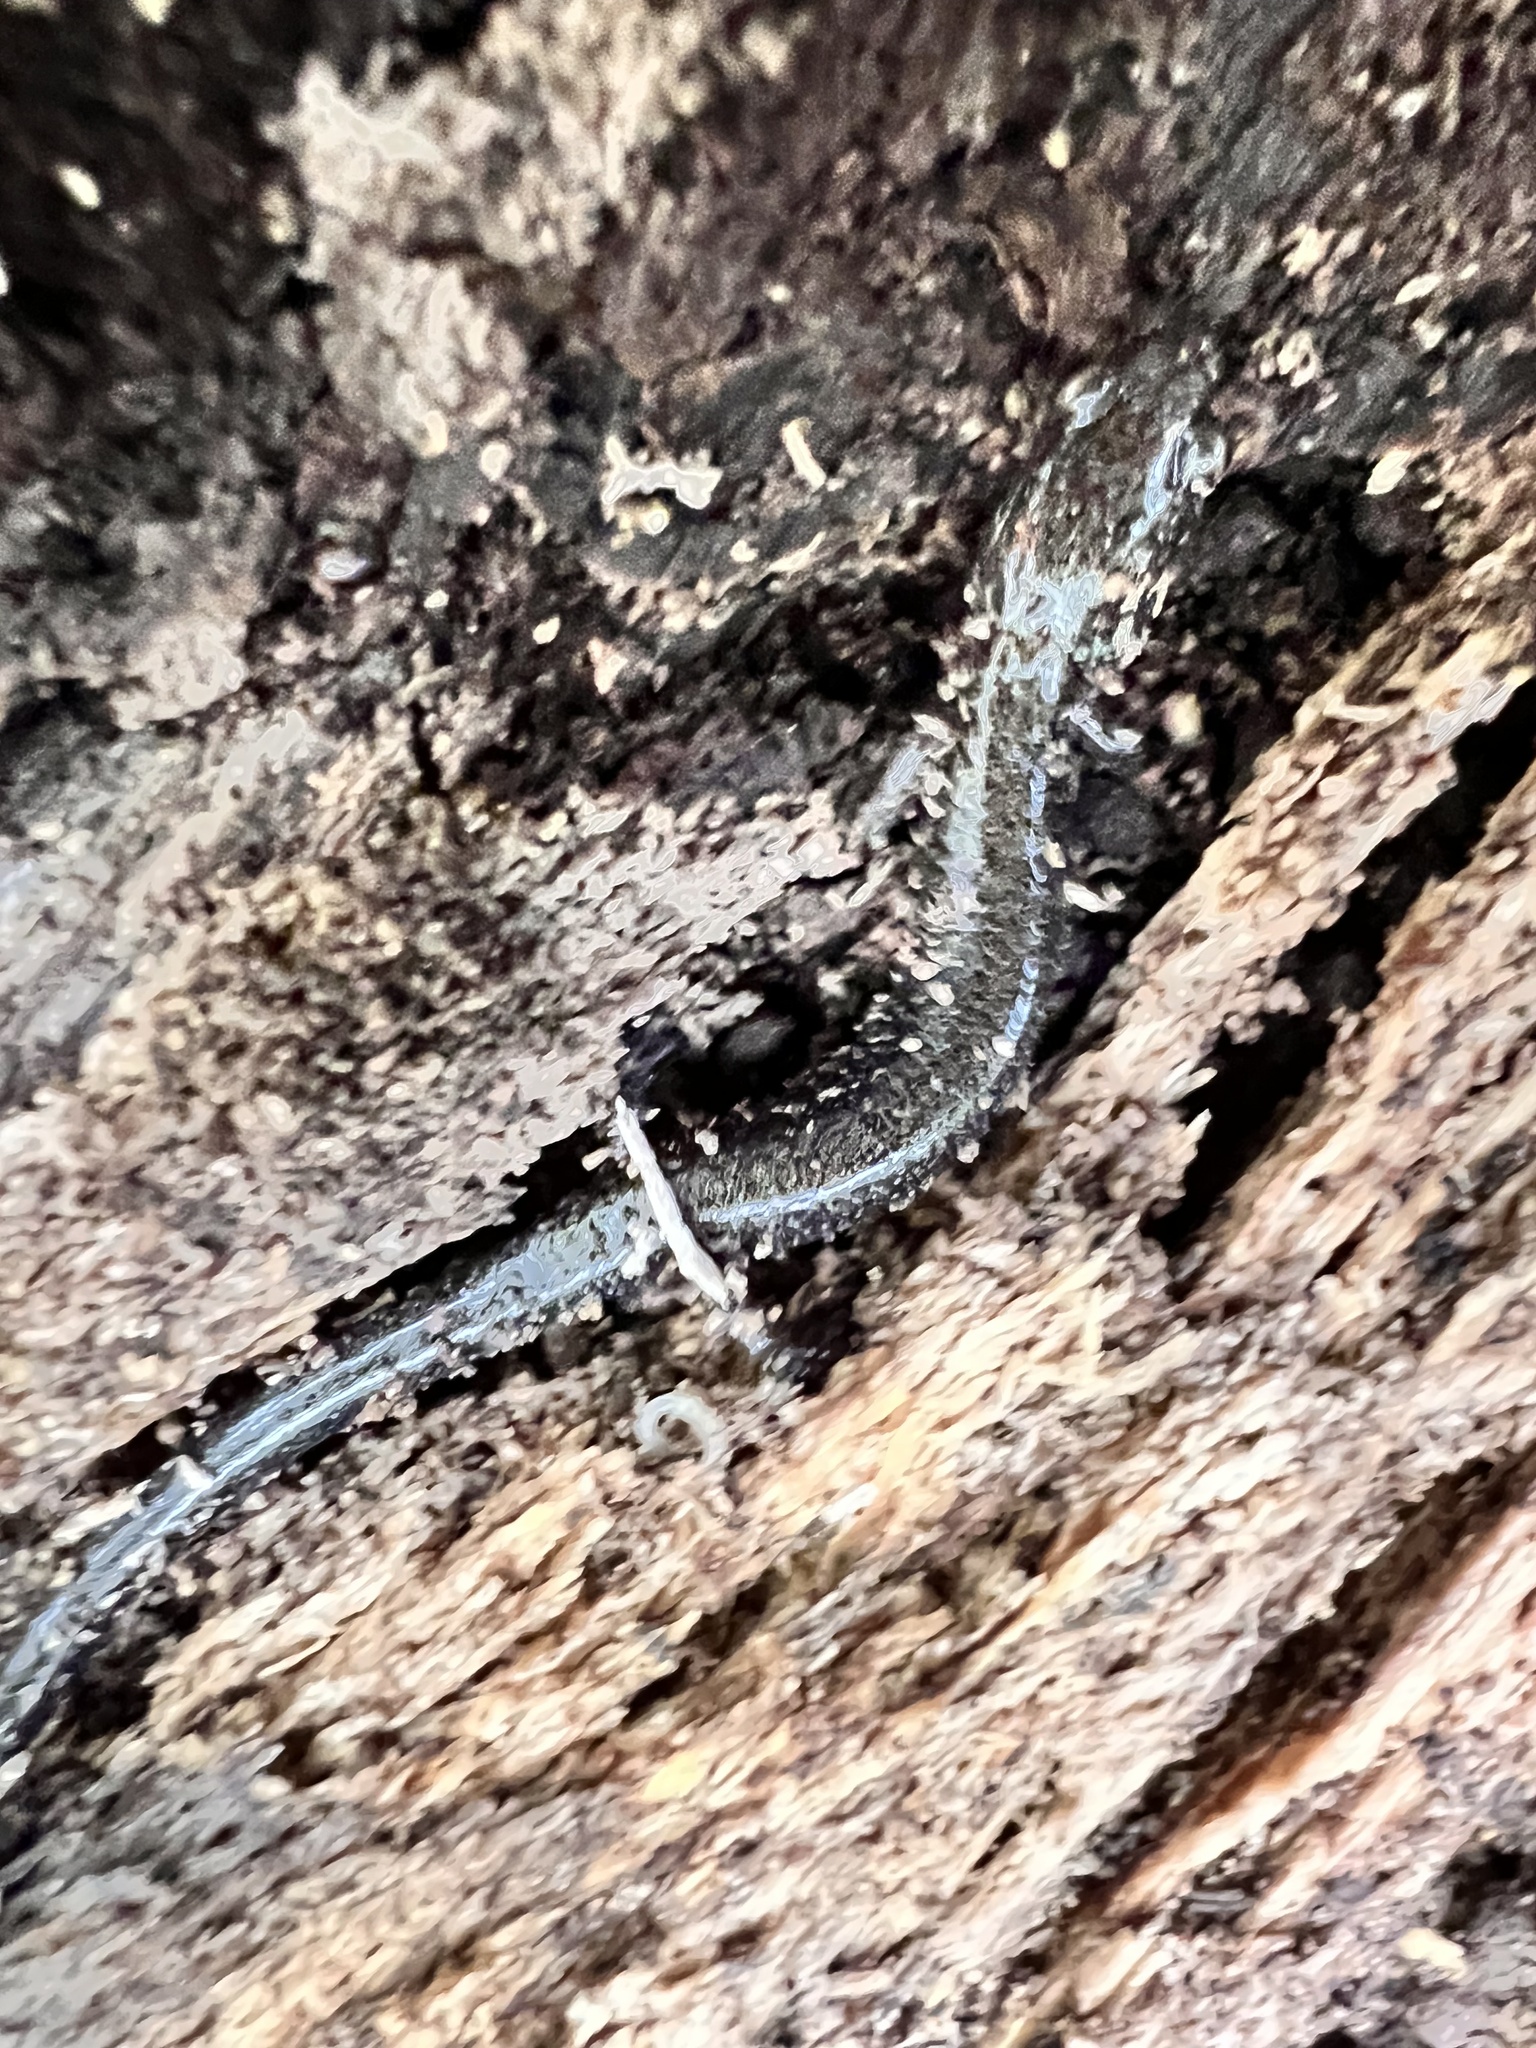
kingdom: Animalia
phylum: Chordata
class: Amphibia
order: Caudata
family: Plethodontidae
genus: Plethodon
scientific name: Plethodon cinereus
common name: Redback salamander
